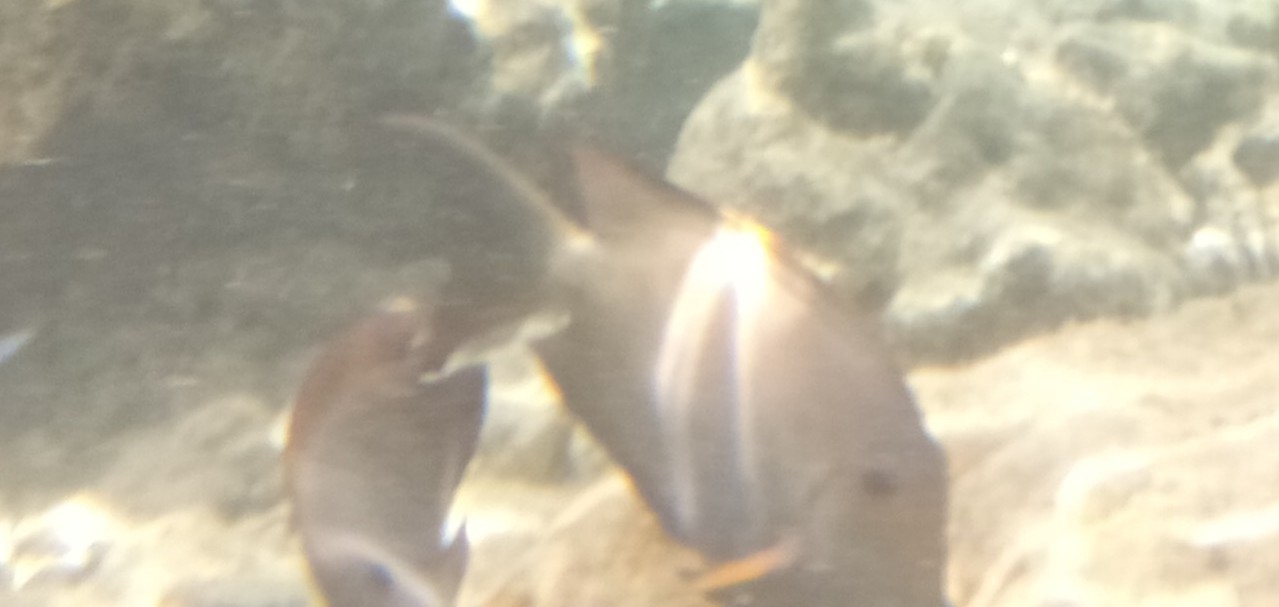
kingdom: Animalia
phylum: Chordata
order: Perciformes
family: Acanthuridae
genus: Ctenochaetus
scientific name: Ctenochaetus striatus
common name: Bristle-toothed surgeonfish
